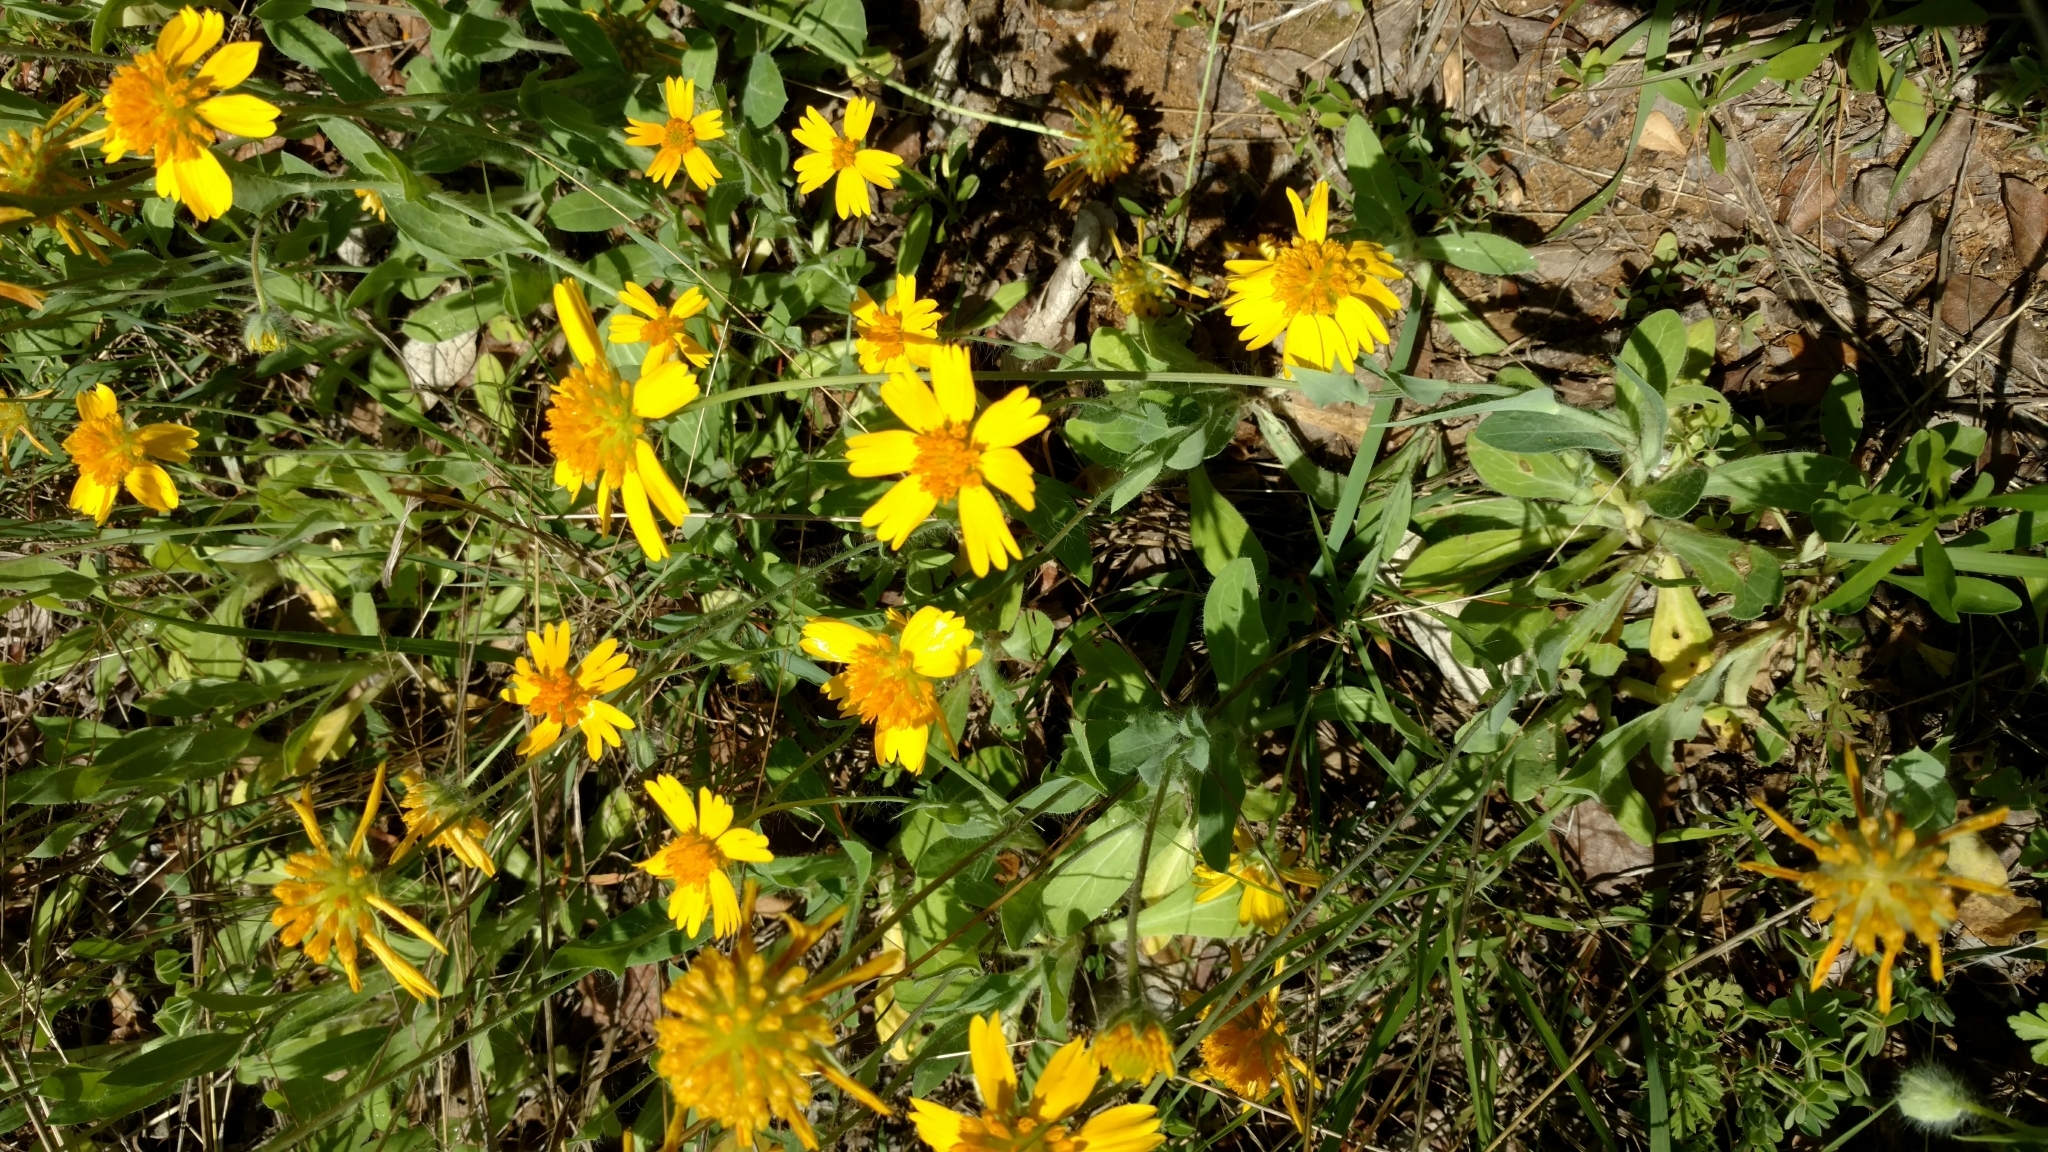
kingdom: Plantae
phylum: Tracheophyta
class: Magnoliopsida
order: Asterales
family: Asteraceae
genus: Amblyolepis
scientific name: Amblyolepis setigera
